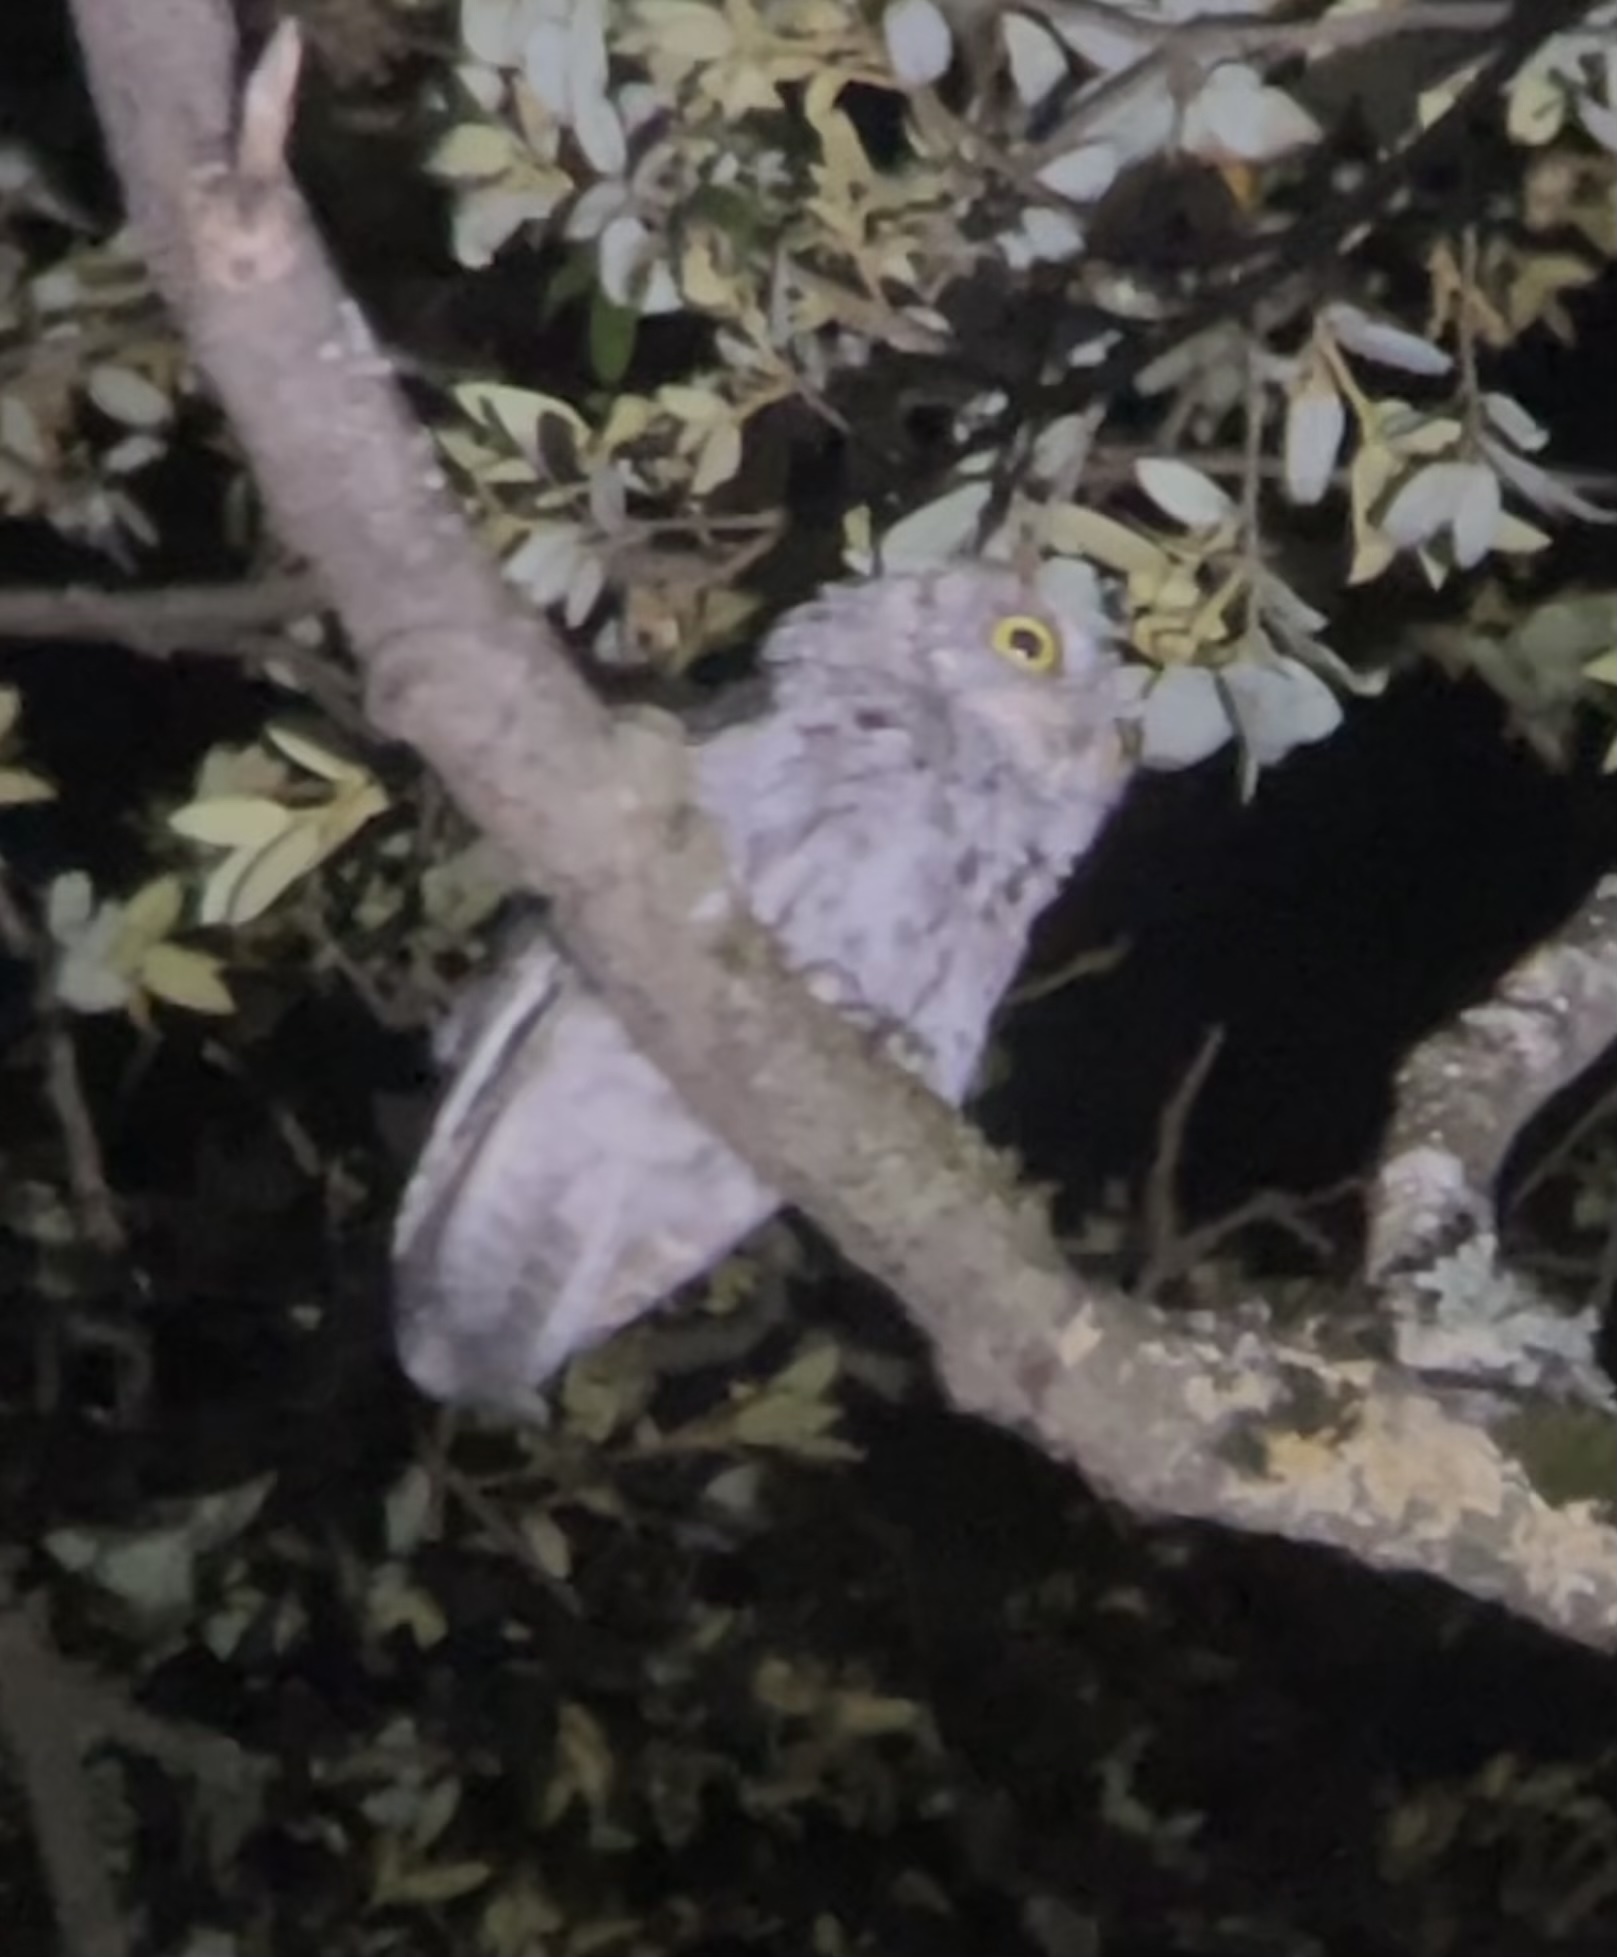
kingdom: Animalia
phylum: Chordata
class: Aves
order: Strigiformes
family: Strigidae
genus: Megascops
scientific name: Megascops kennicottii
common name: Western screech-owl
